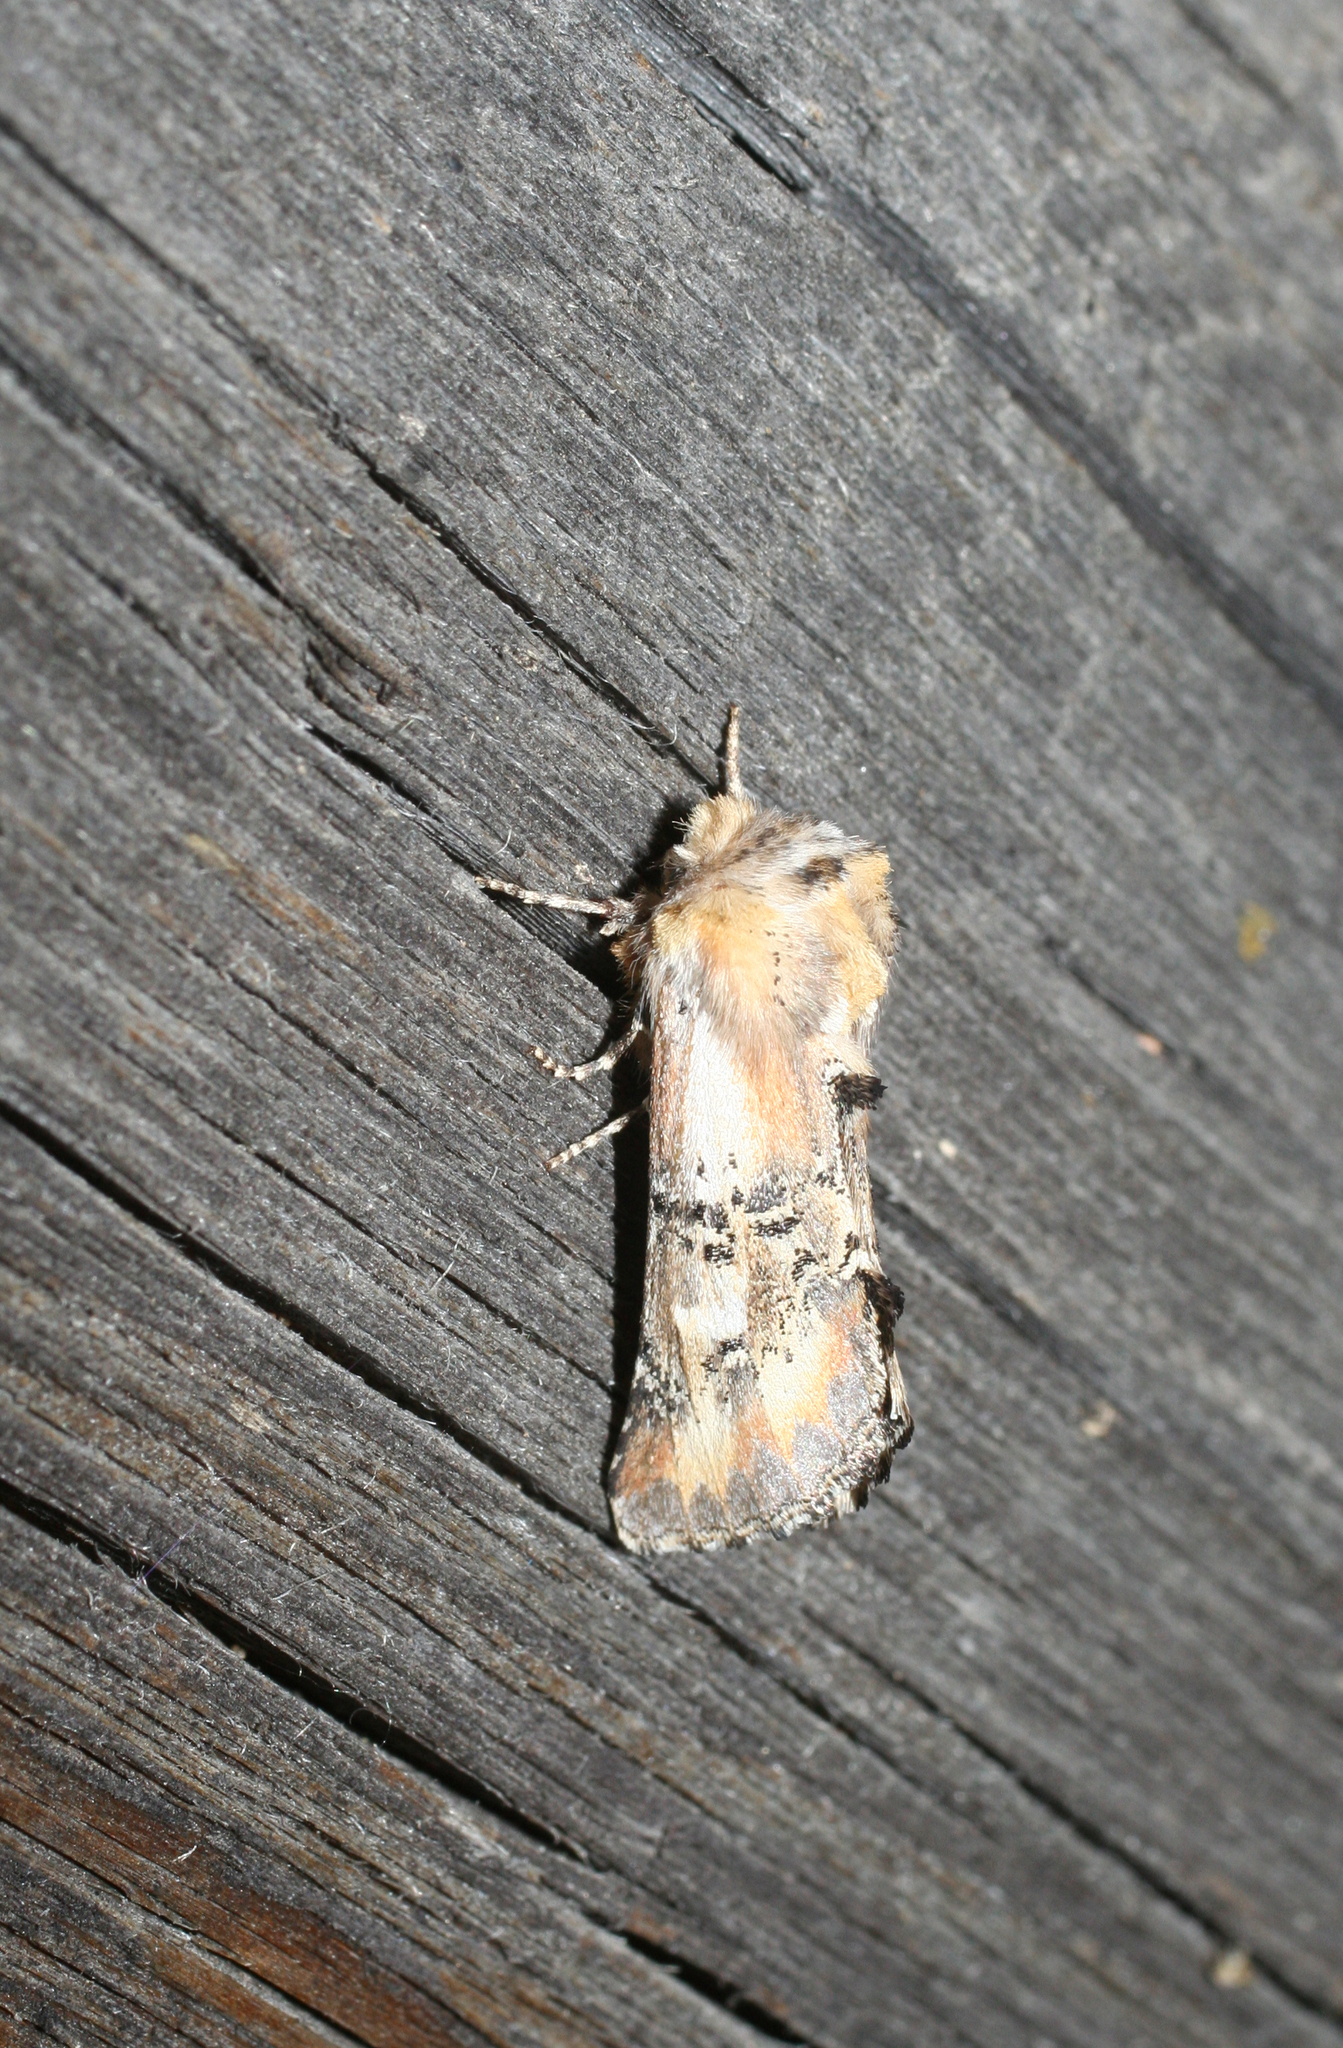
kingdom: Animalia
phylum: Arthropoda
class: Insecta
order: Lepidoptera
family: Notodontidae
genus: Pterotes
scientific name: Pterotes eugenia
